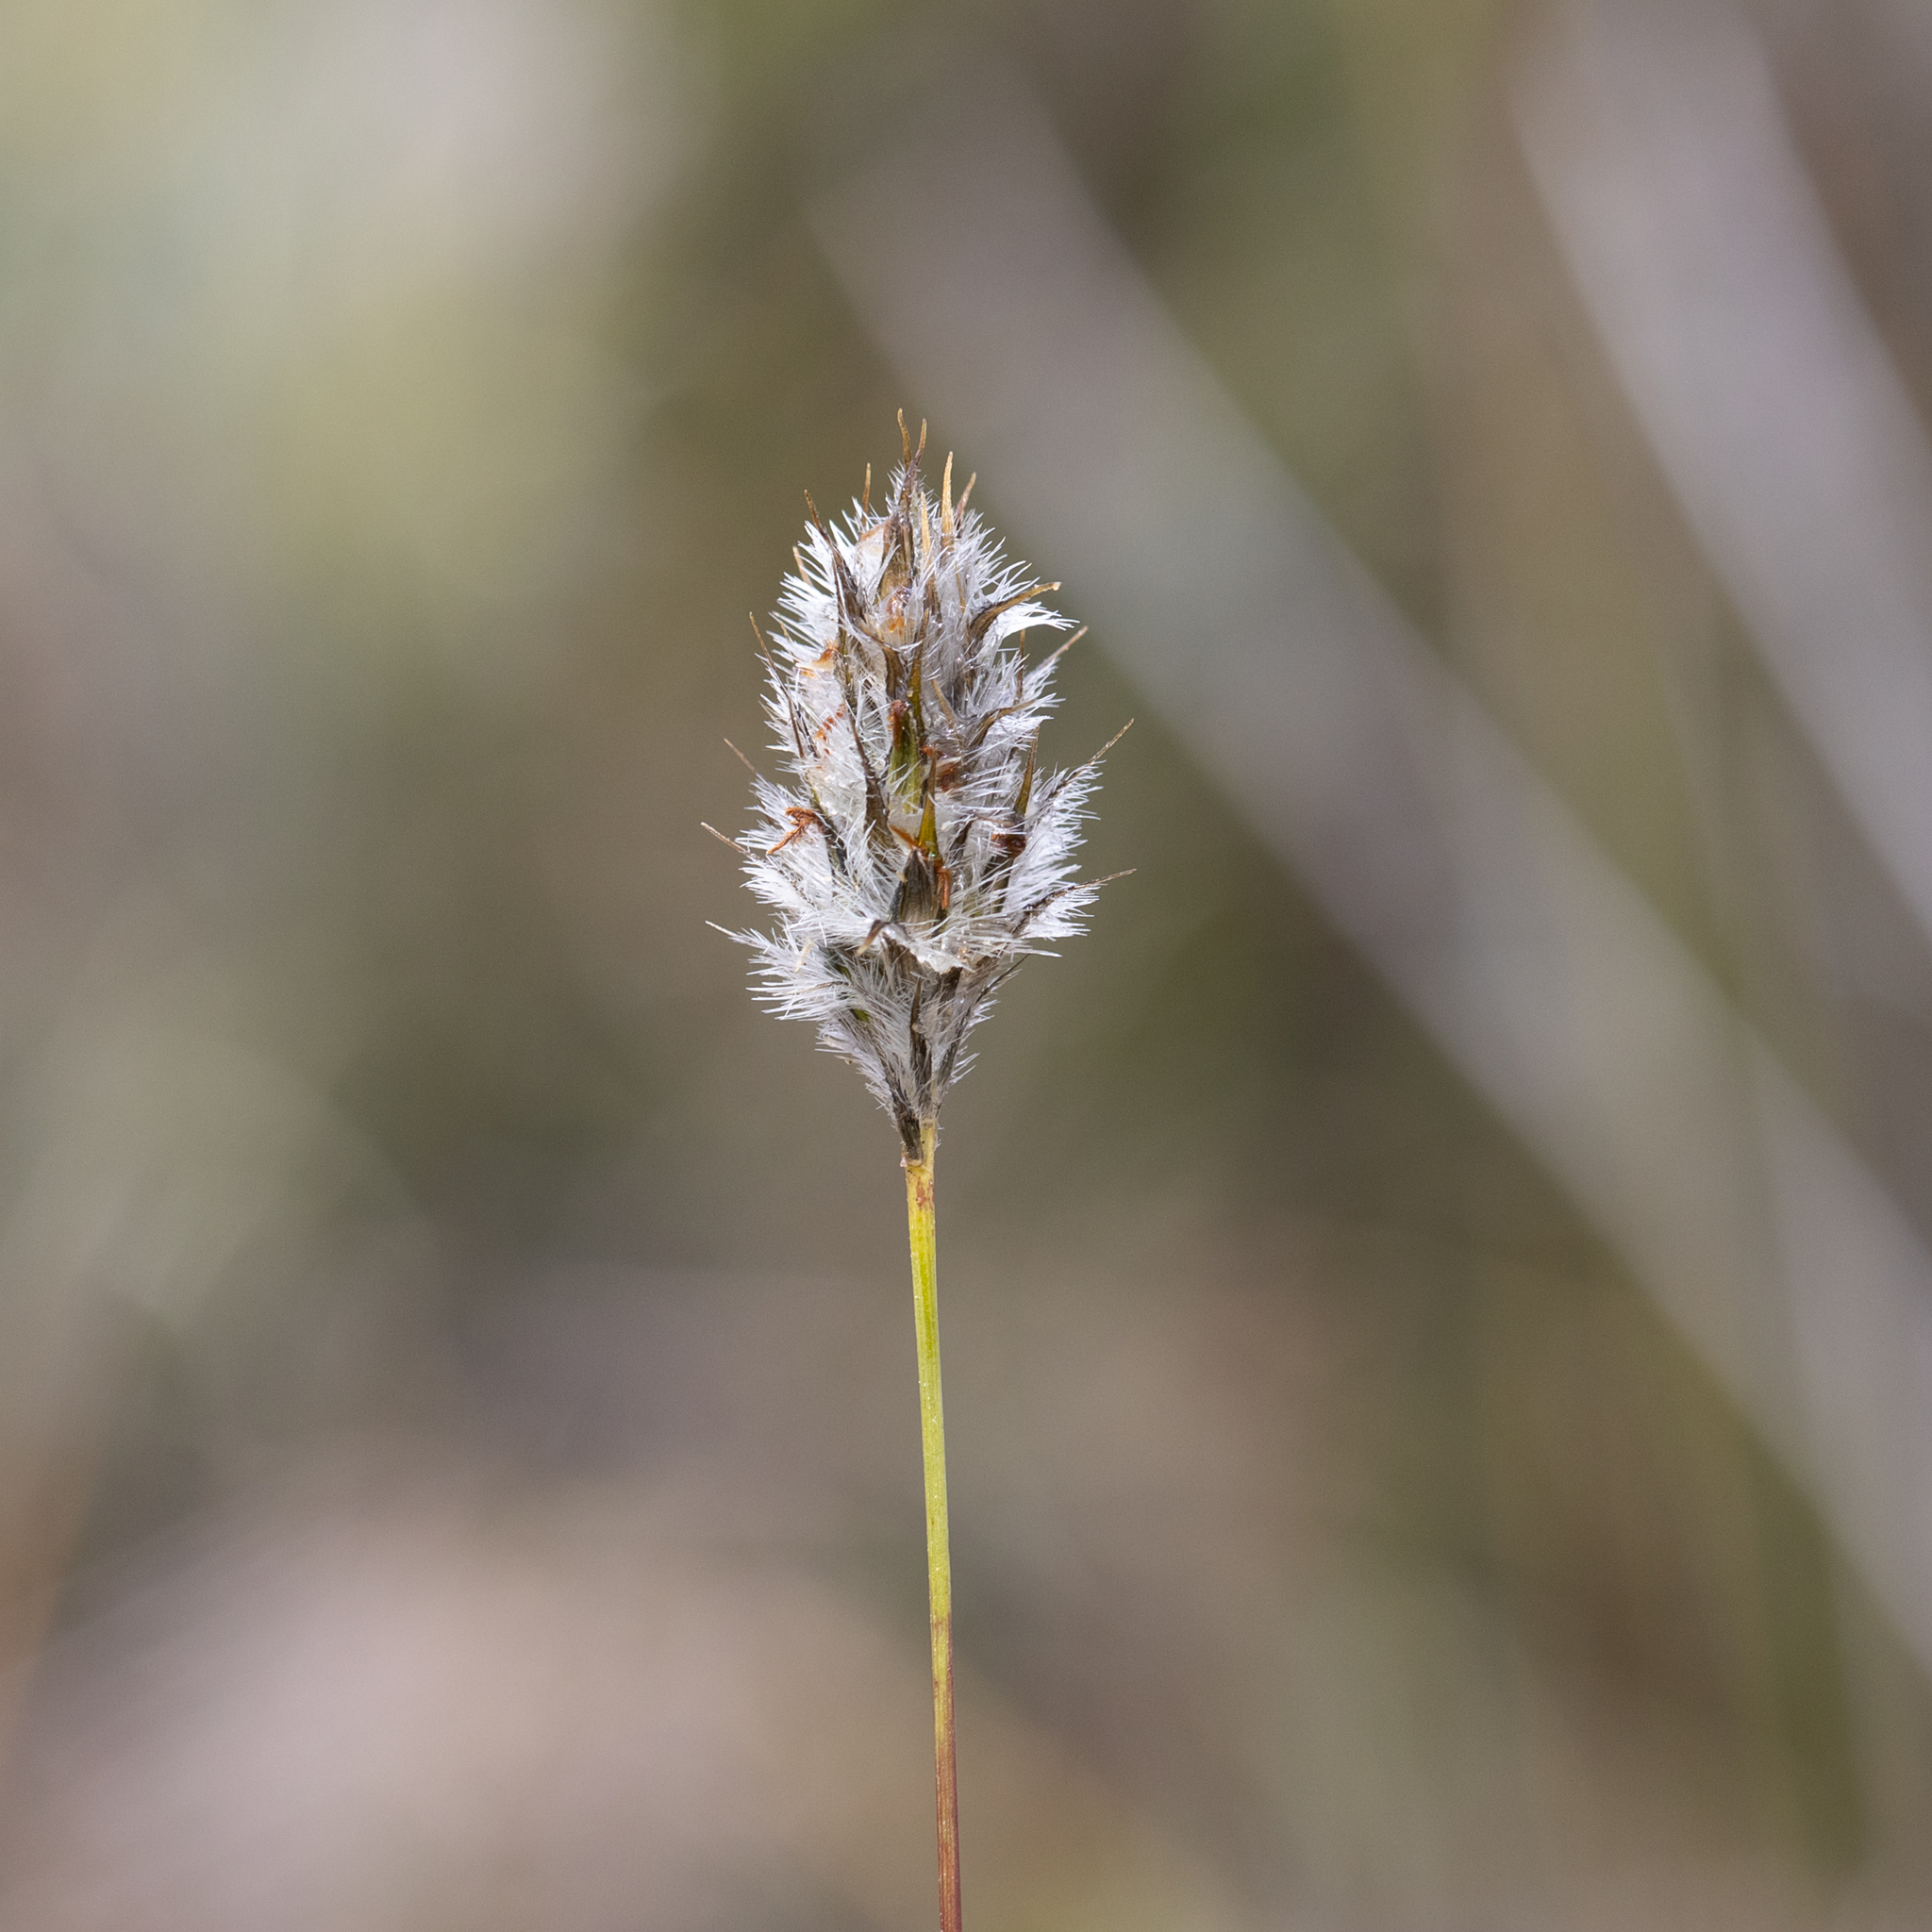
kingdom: Plantae
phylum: Tracheophyta
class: Liliopsida
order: Poales
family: Poaceae
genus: Neurachne
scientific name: Neurachne alopecuroidea
